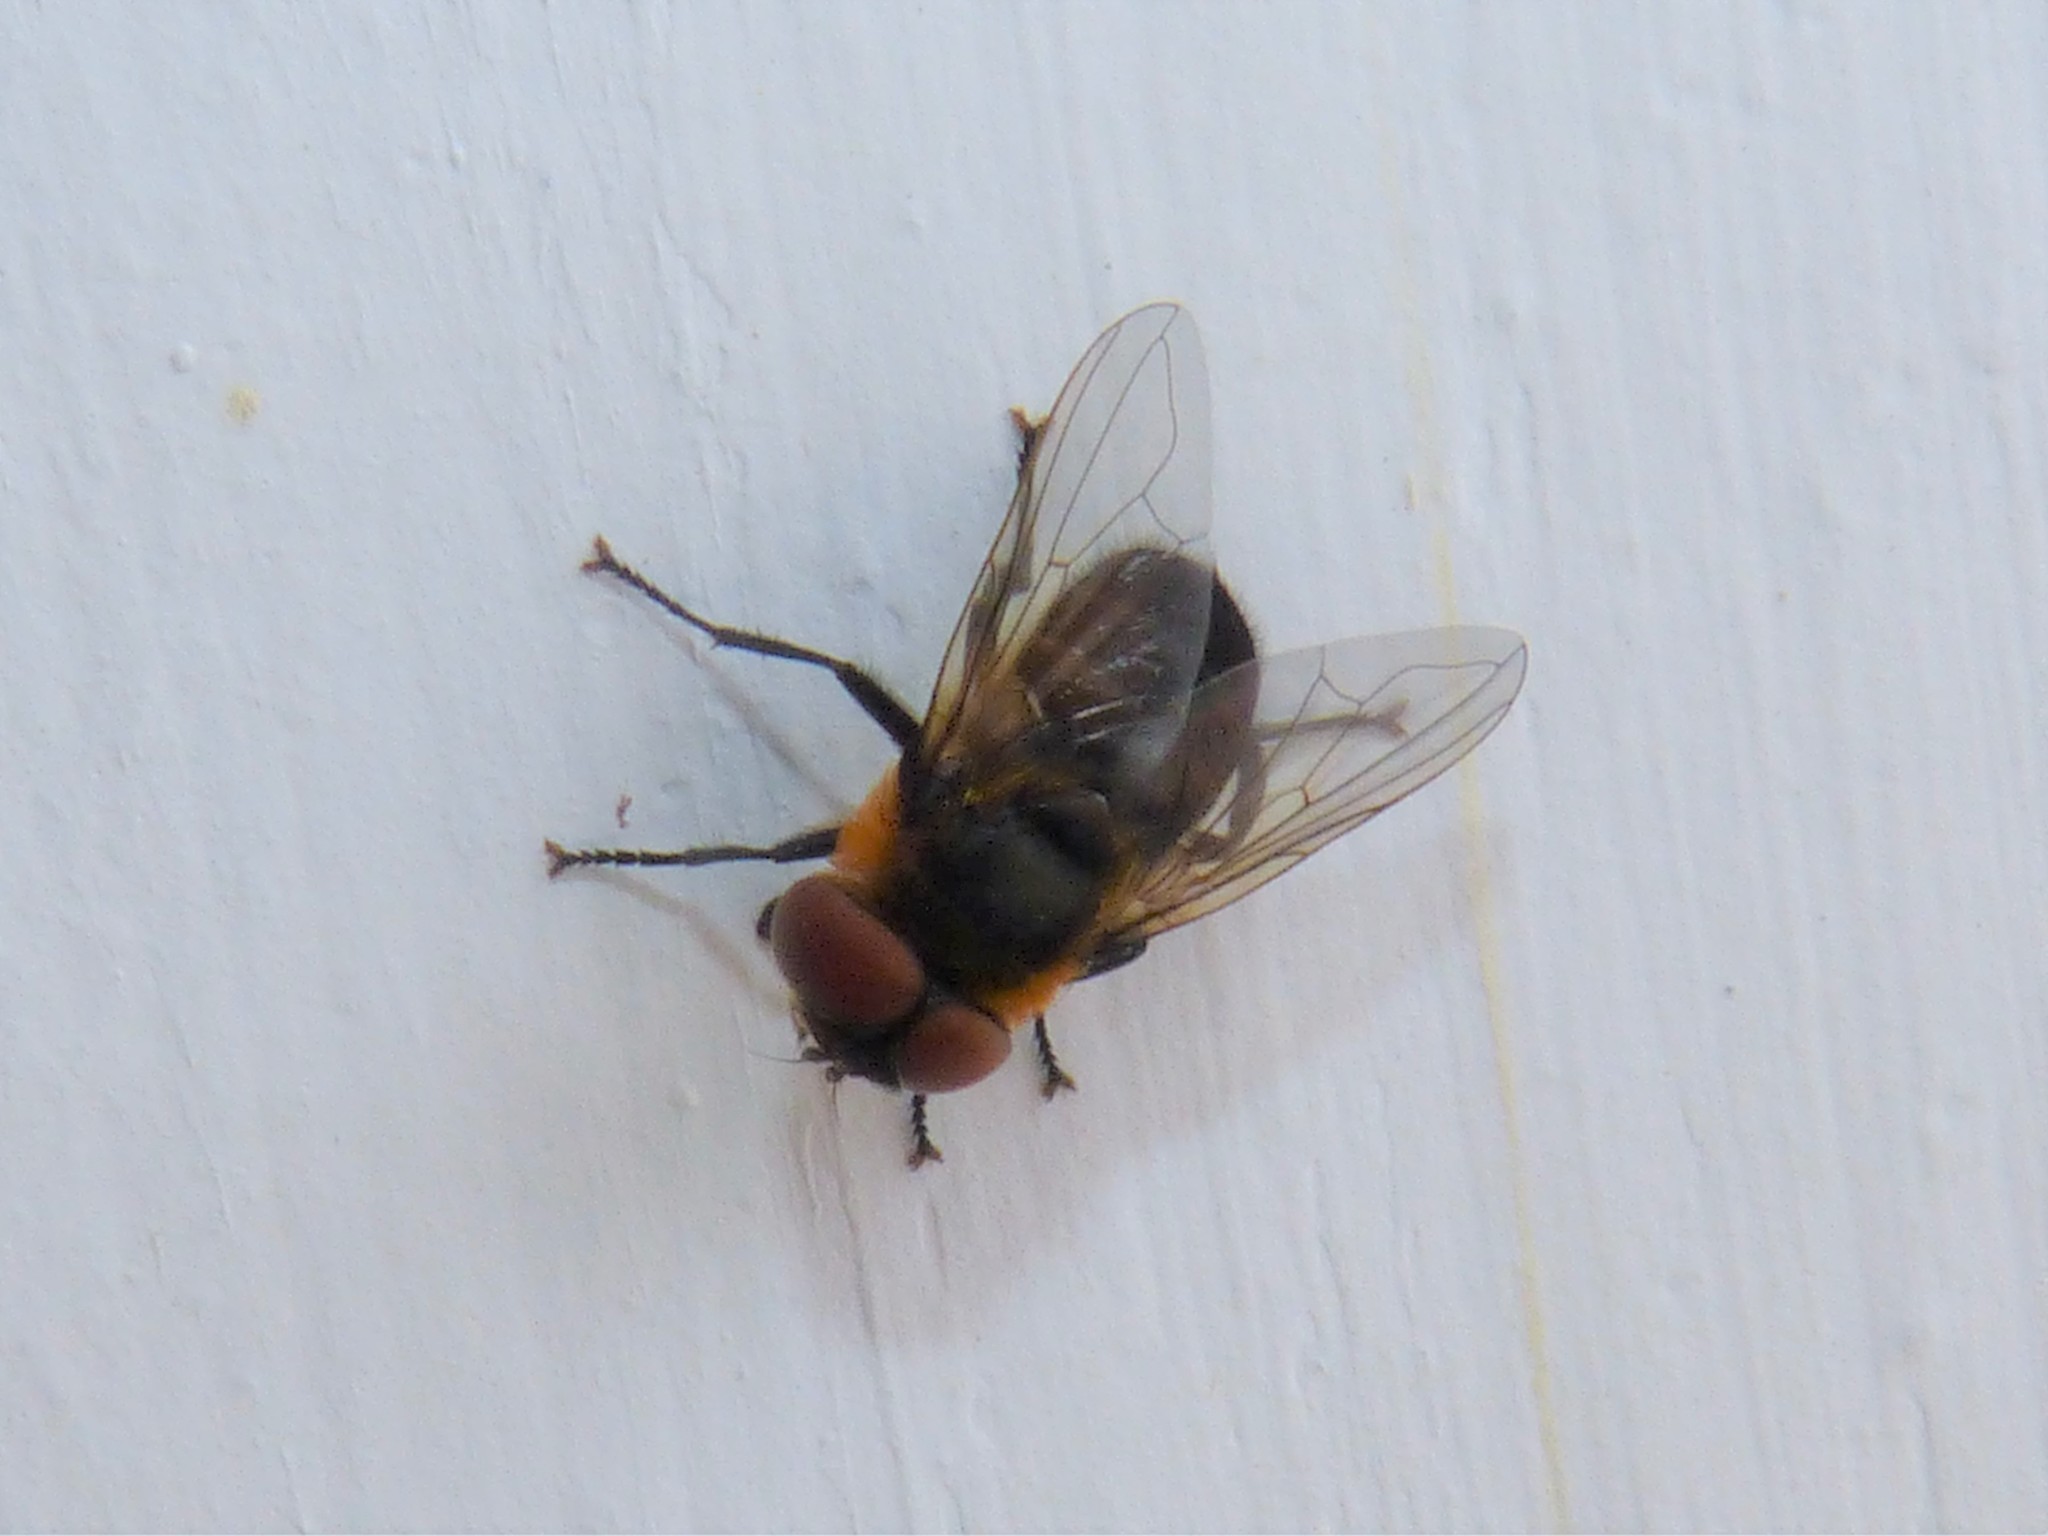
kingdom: Animalia
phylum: Arthropoda
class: Insecta
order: Diptera
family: Tachinidae
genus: Phasia
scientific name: Phasia hemiptera
